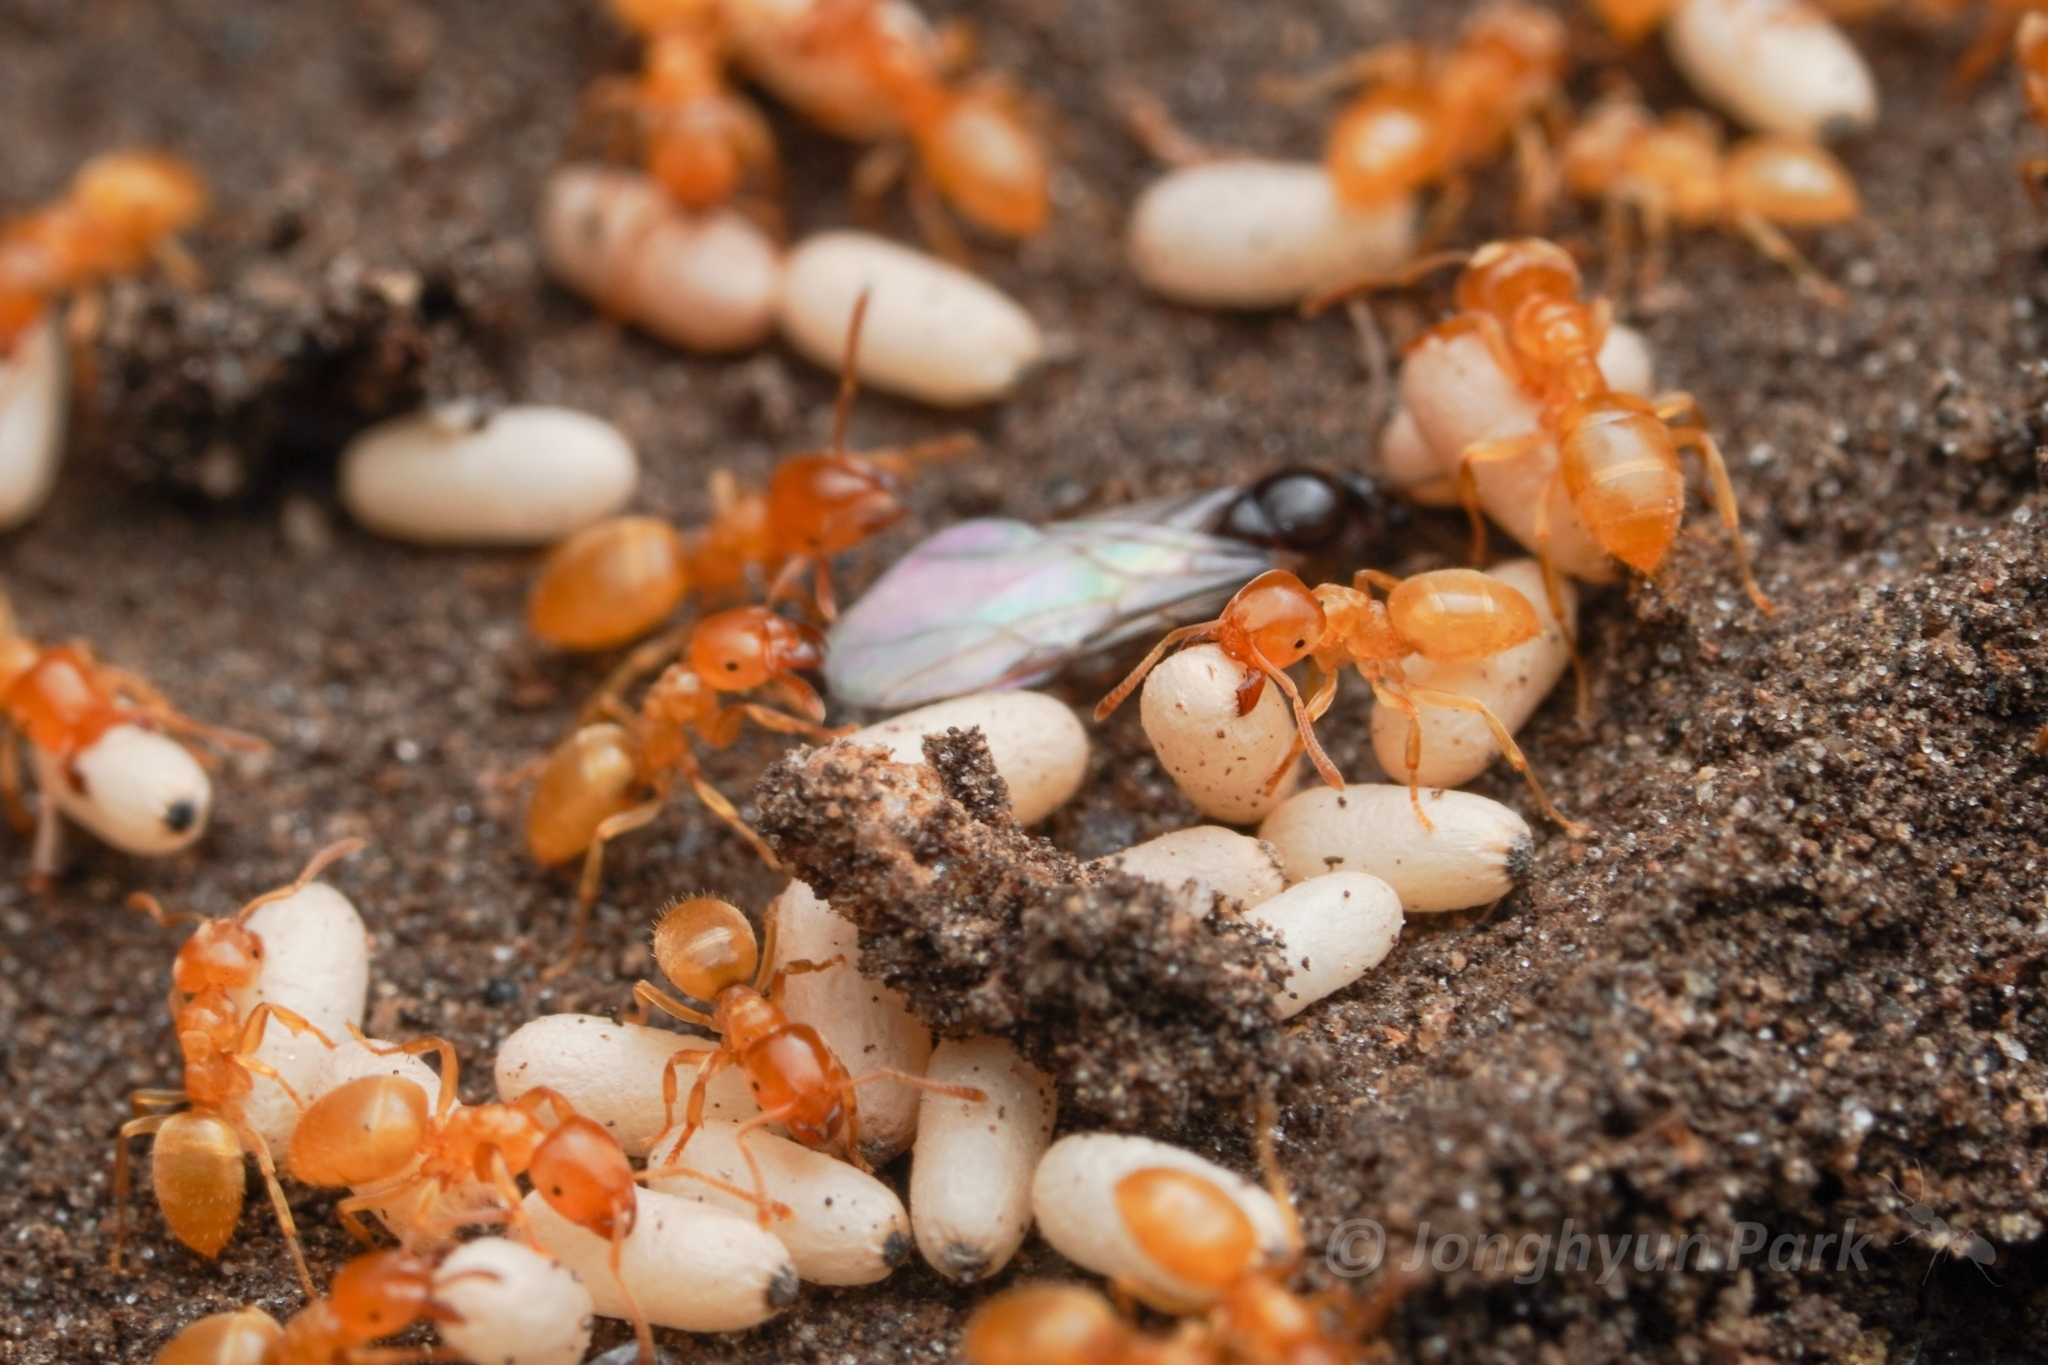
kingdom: Animalia
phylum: Arthropoda
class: Insecta
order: Hymenoptera
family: Formicidae
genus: Lasius
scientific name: Lasius nearcticus
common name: New world fuzzy ant
